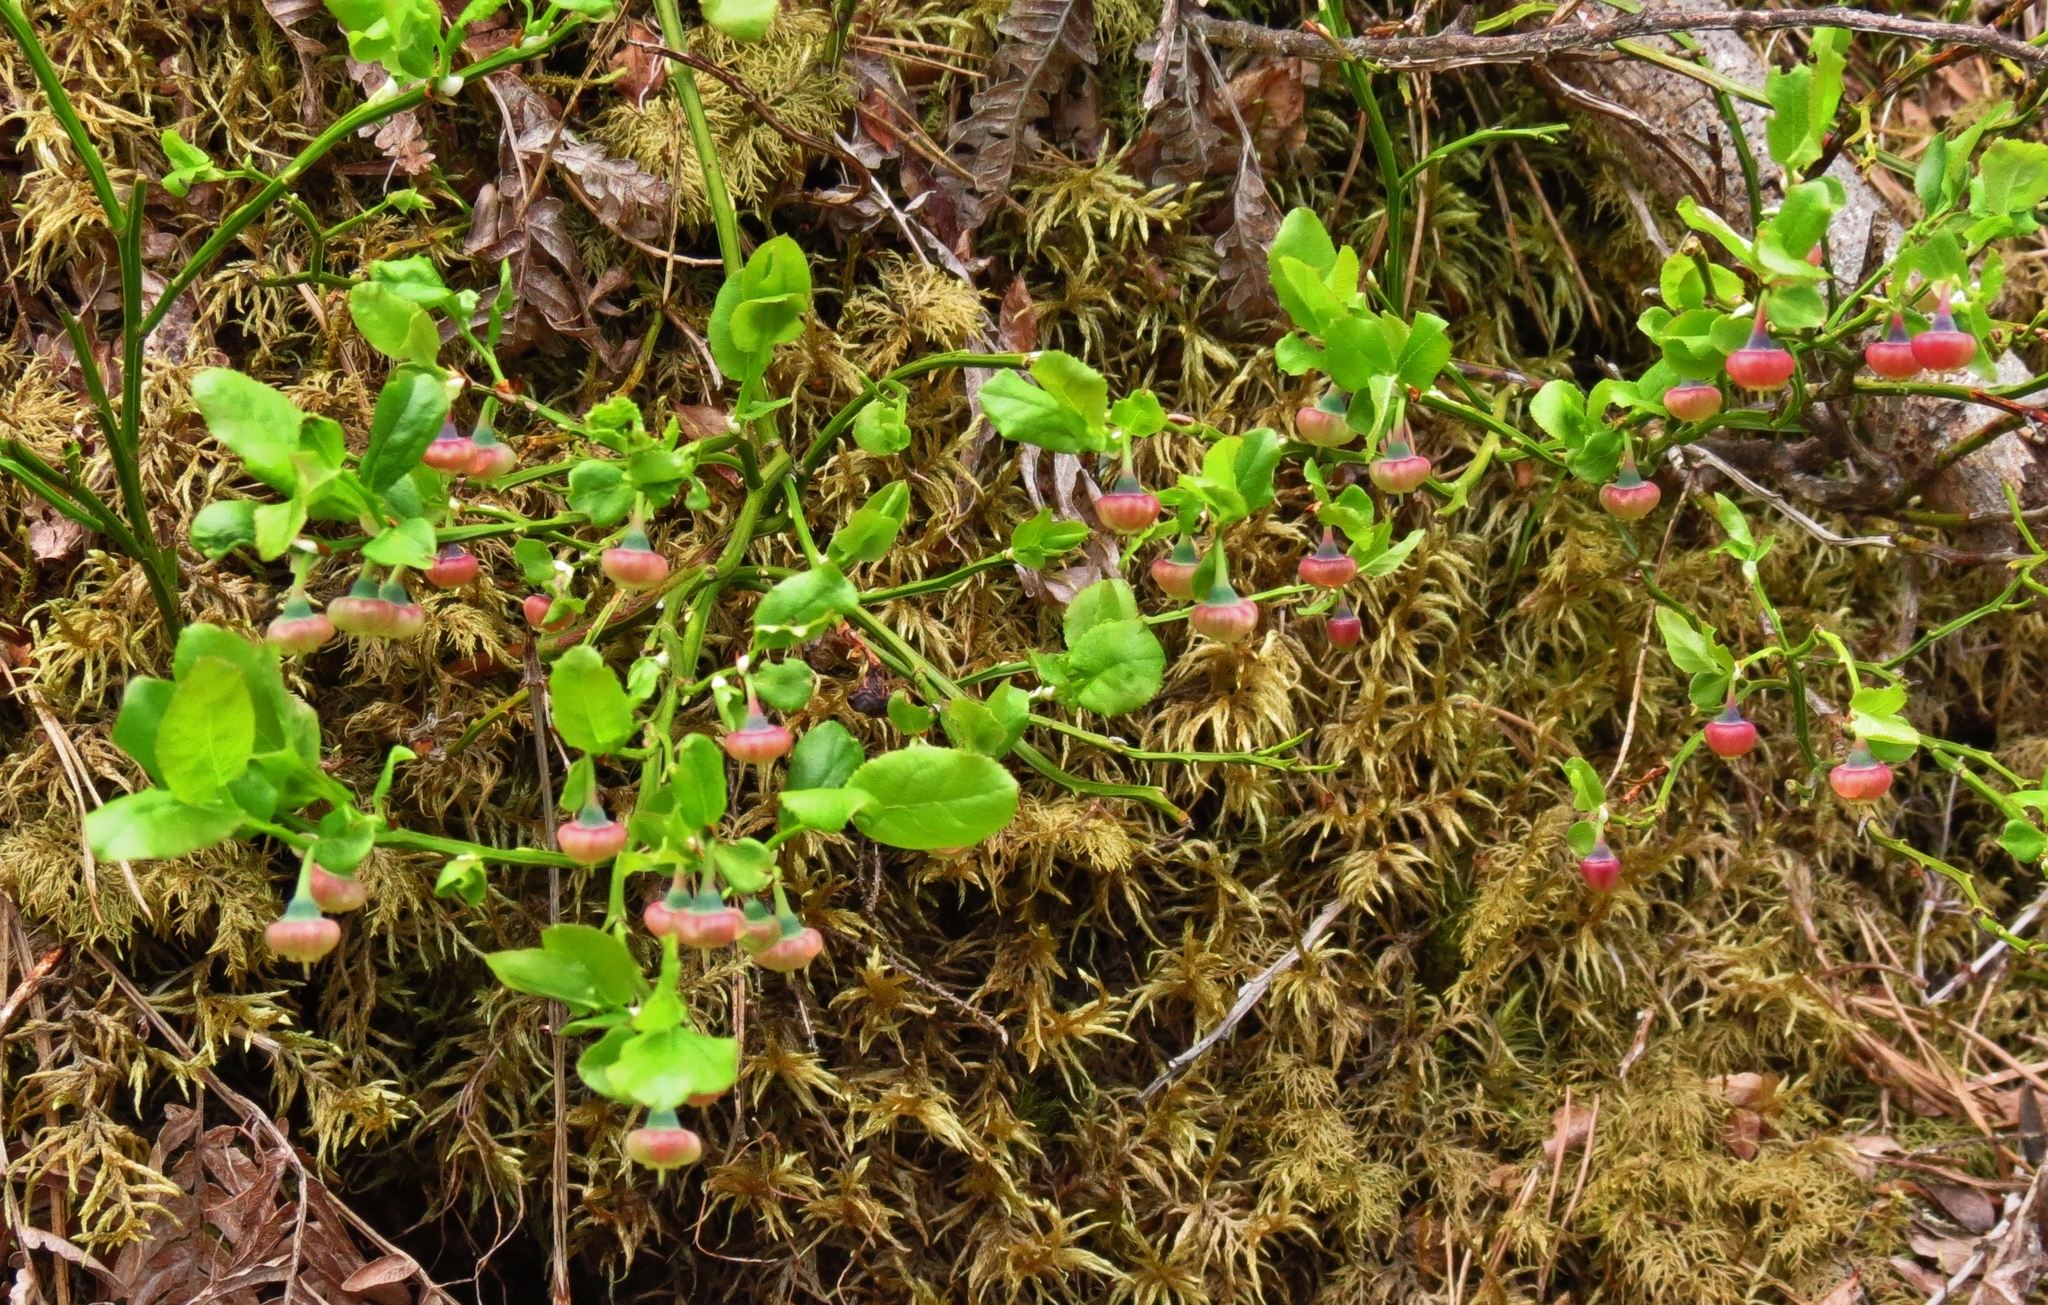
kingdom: Plantae
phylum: Tracheophyta
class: Magnoliopsida
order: Ericales
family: Ericaceae
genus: Vaccinium
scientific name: Vaccinium myrtillus
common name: Bilberry
